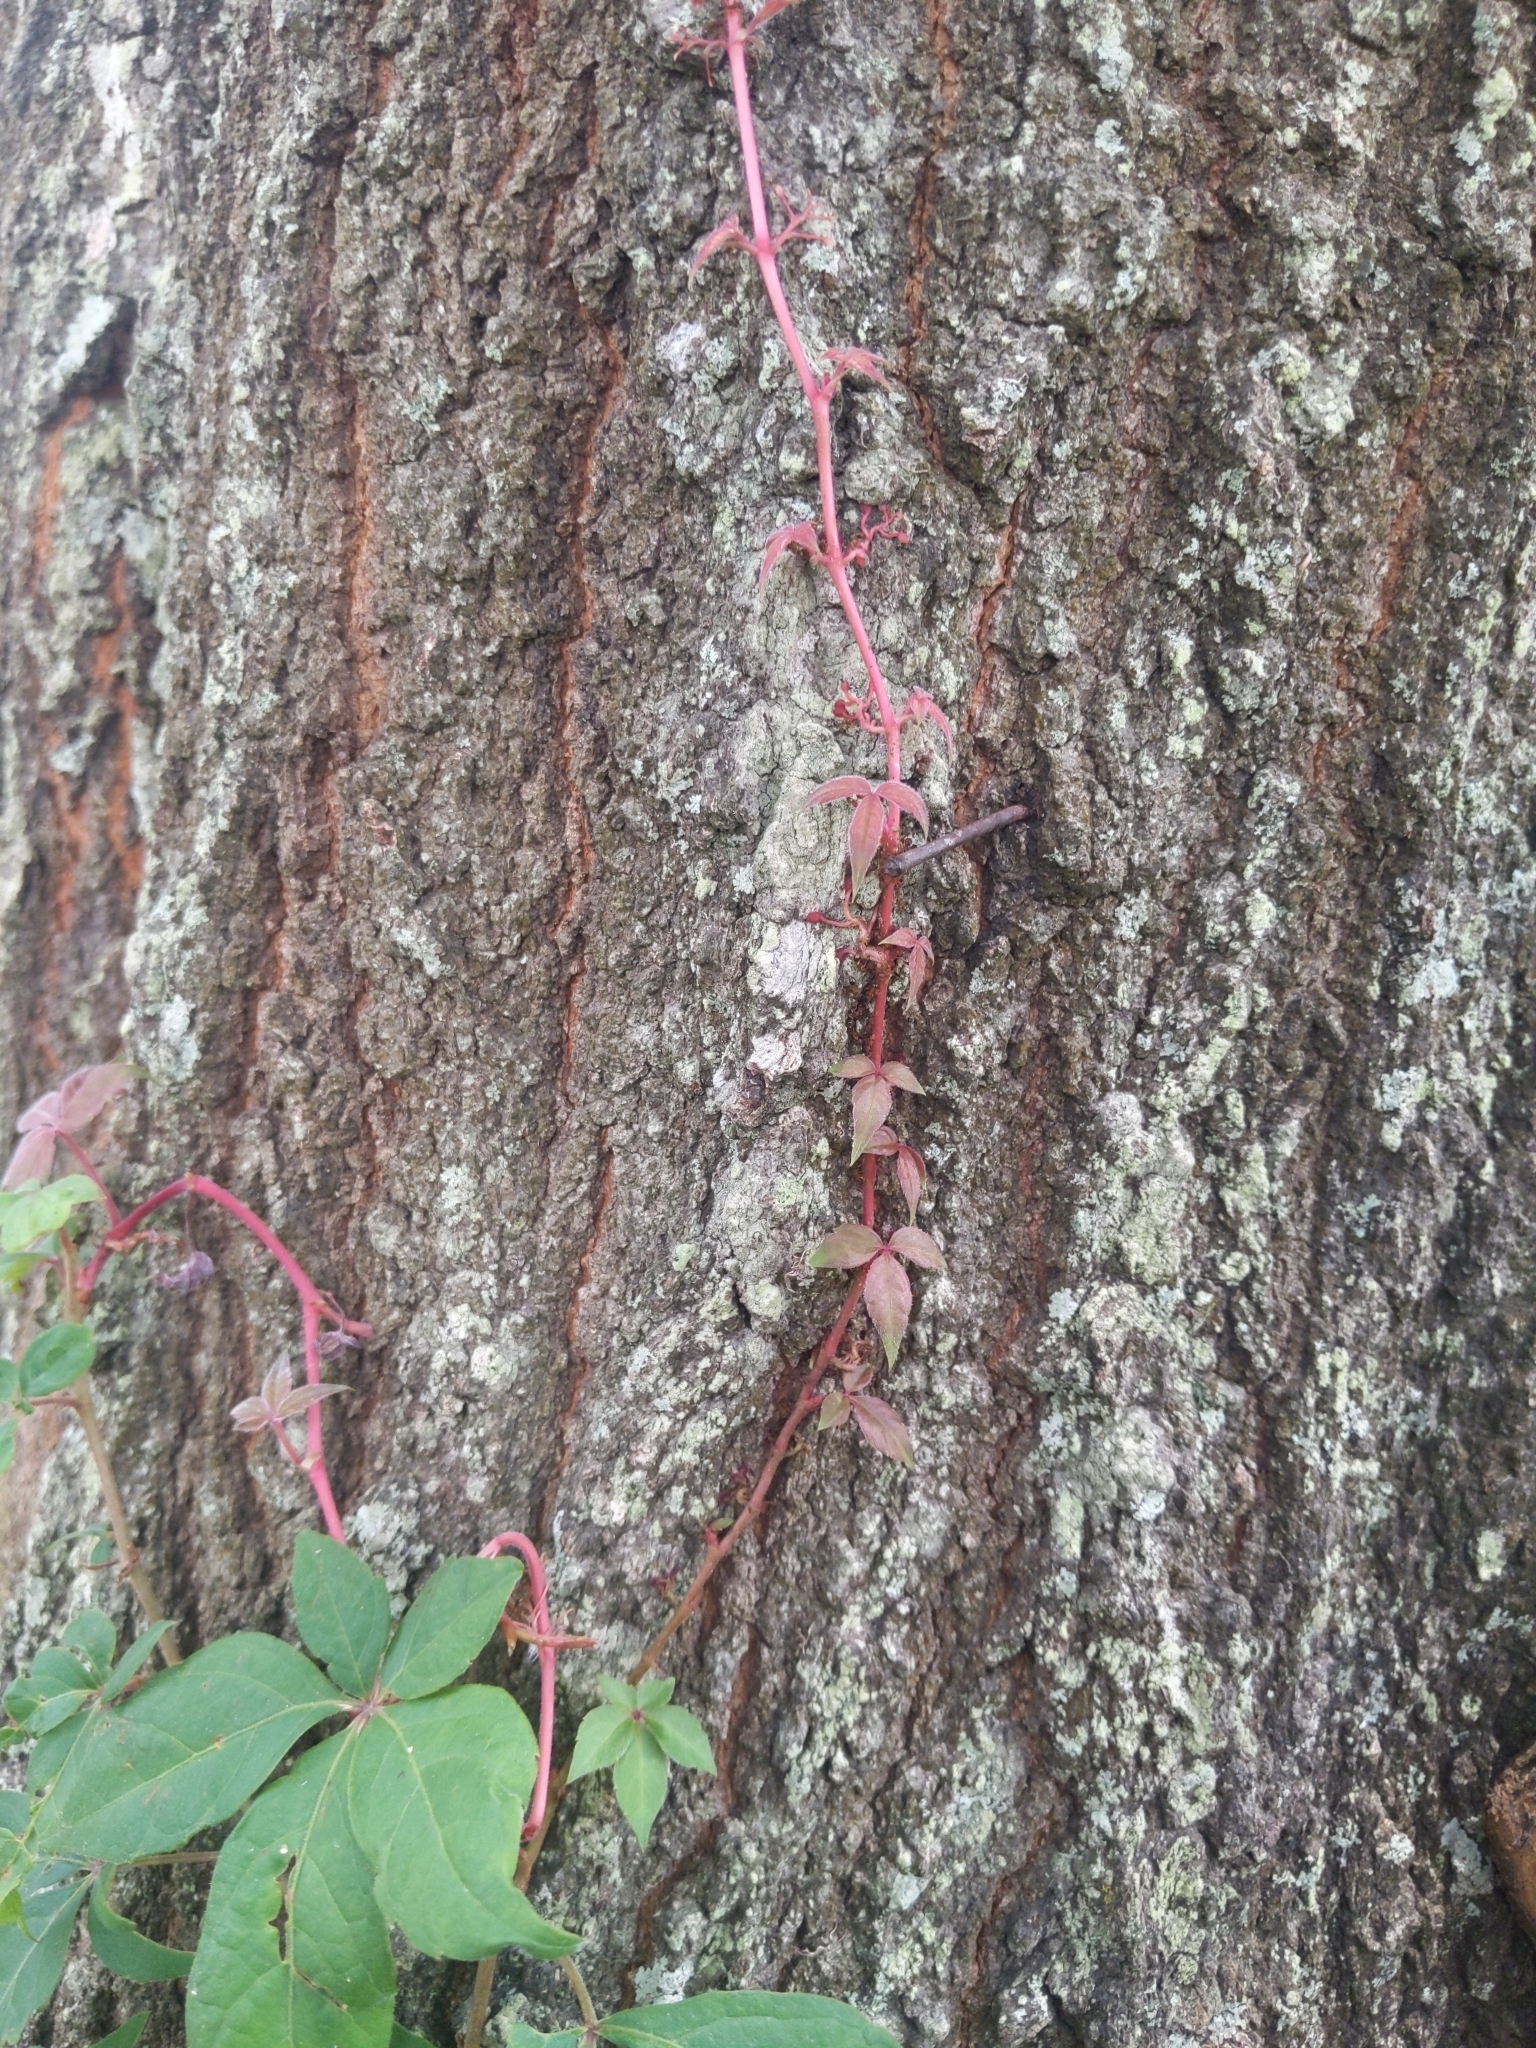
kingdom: Plantae
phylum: Tracheophyta
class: Magnoliopsida
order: Vitales
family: Vitaceae
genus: Parthenocissus
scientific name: Parthenocissus quinquefolia
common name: Virginia-creeper
